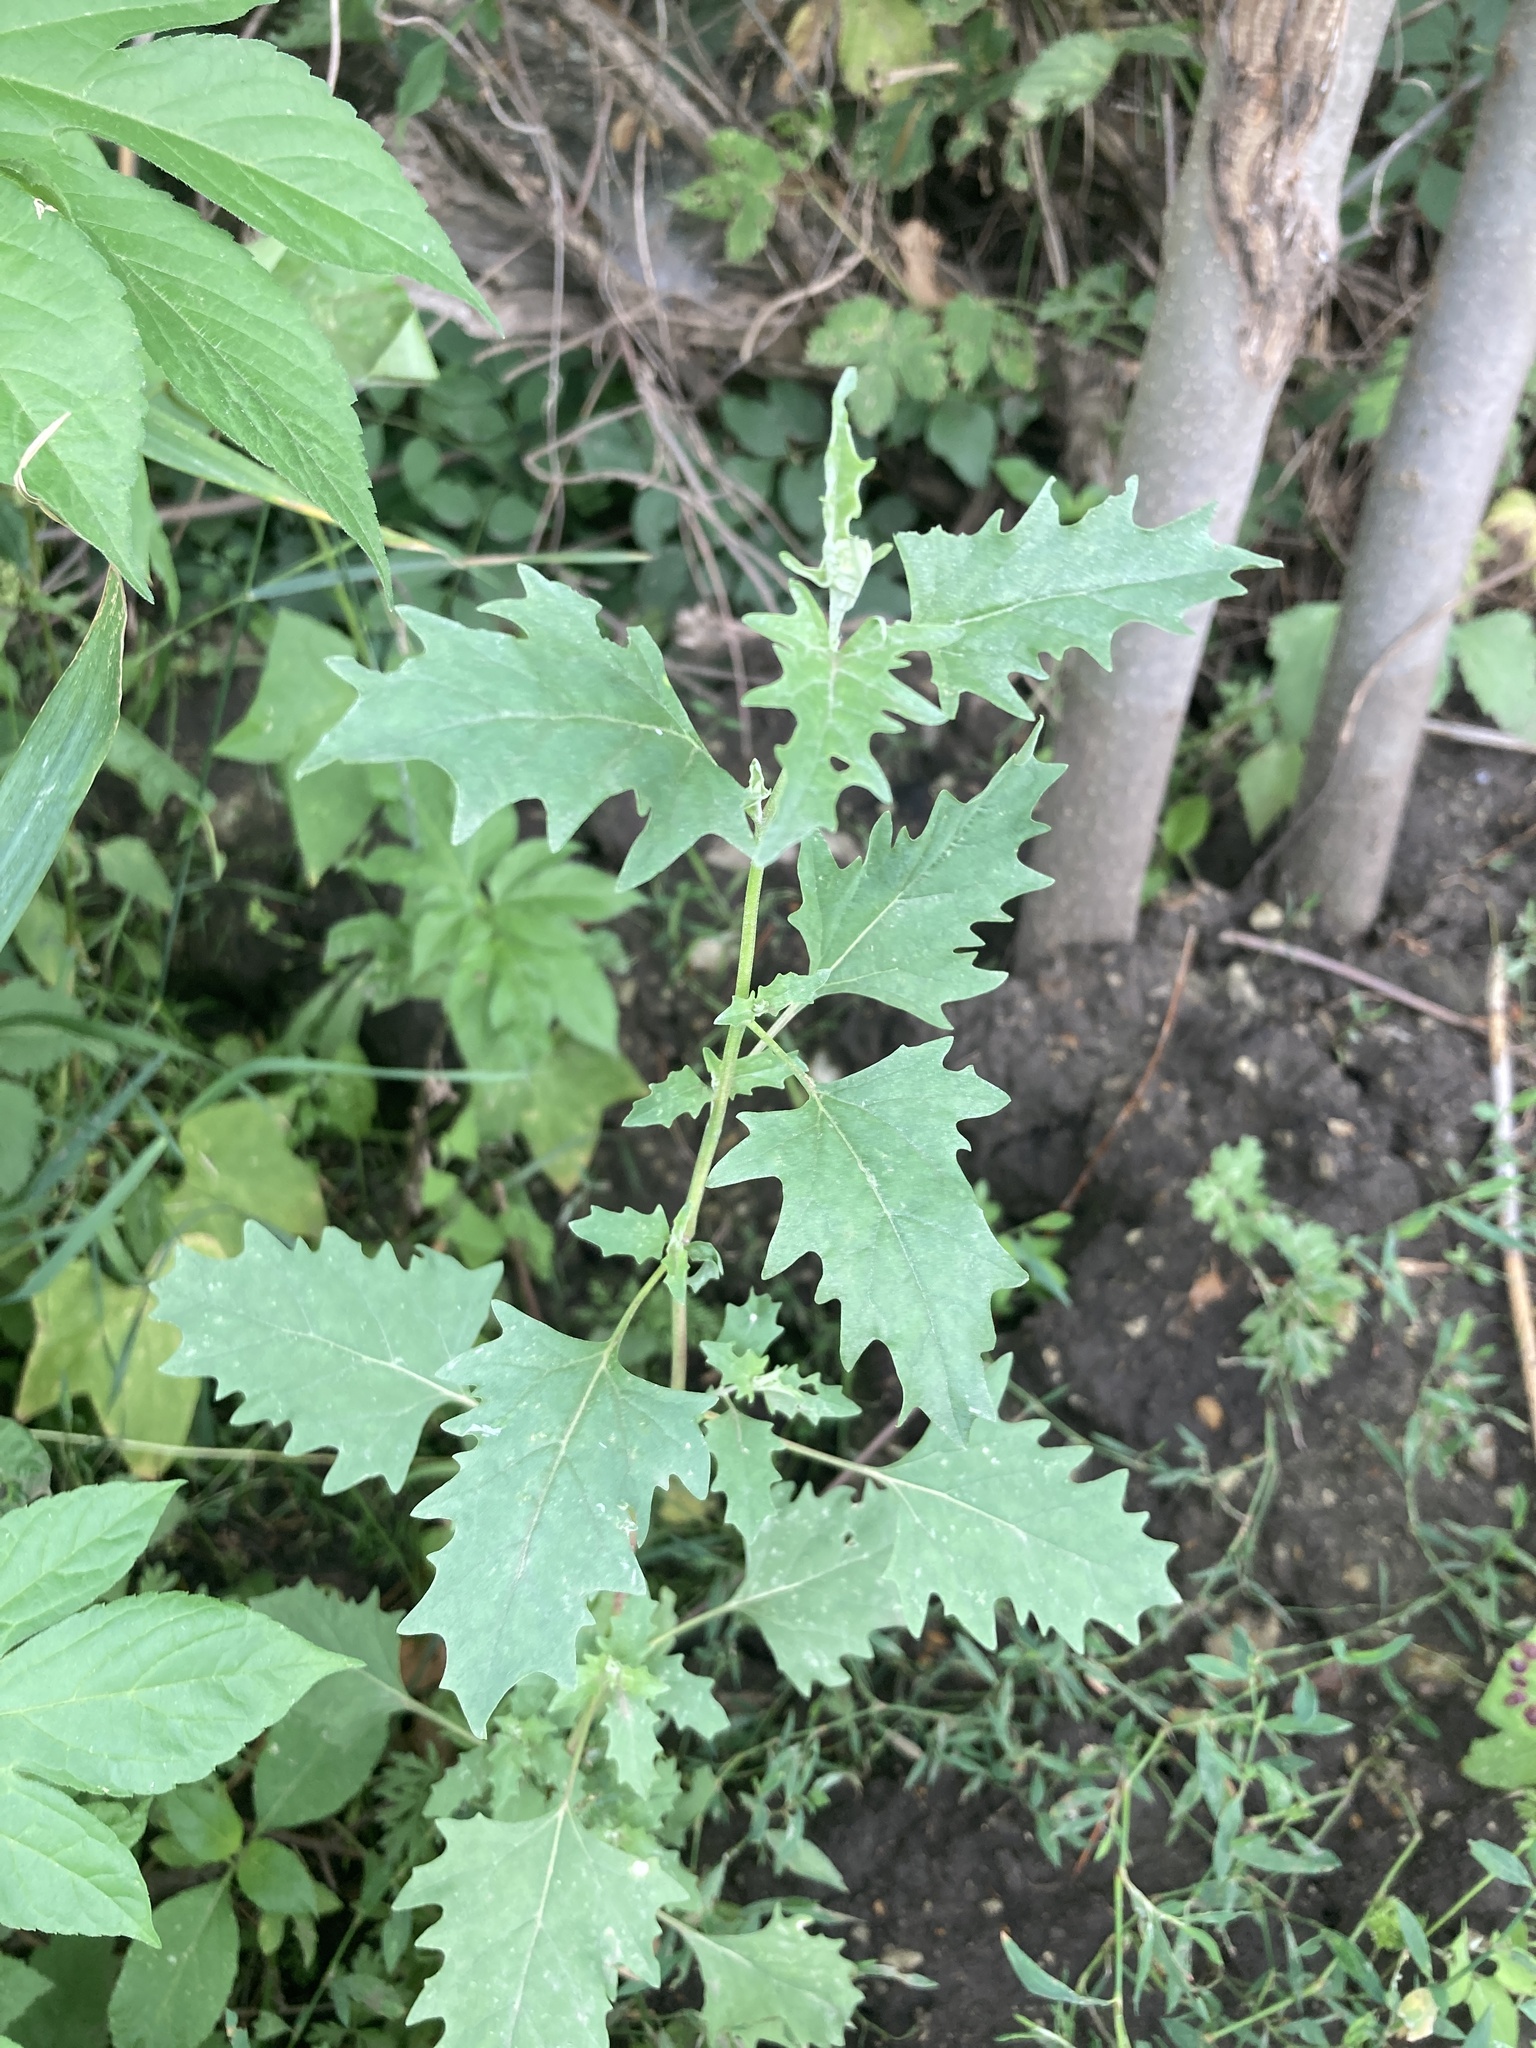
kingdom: Plantae
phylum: Tracheophyta
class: Magnoliopsida
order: Caryophyllales
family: Amaranthaceae
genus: Atriplex
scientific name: Atriplex tatarica
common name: Tatarian orache
